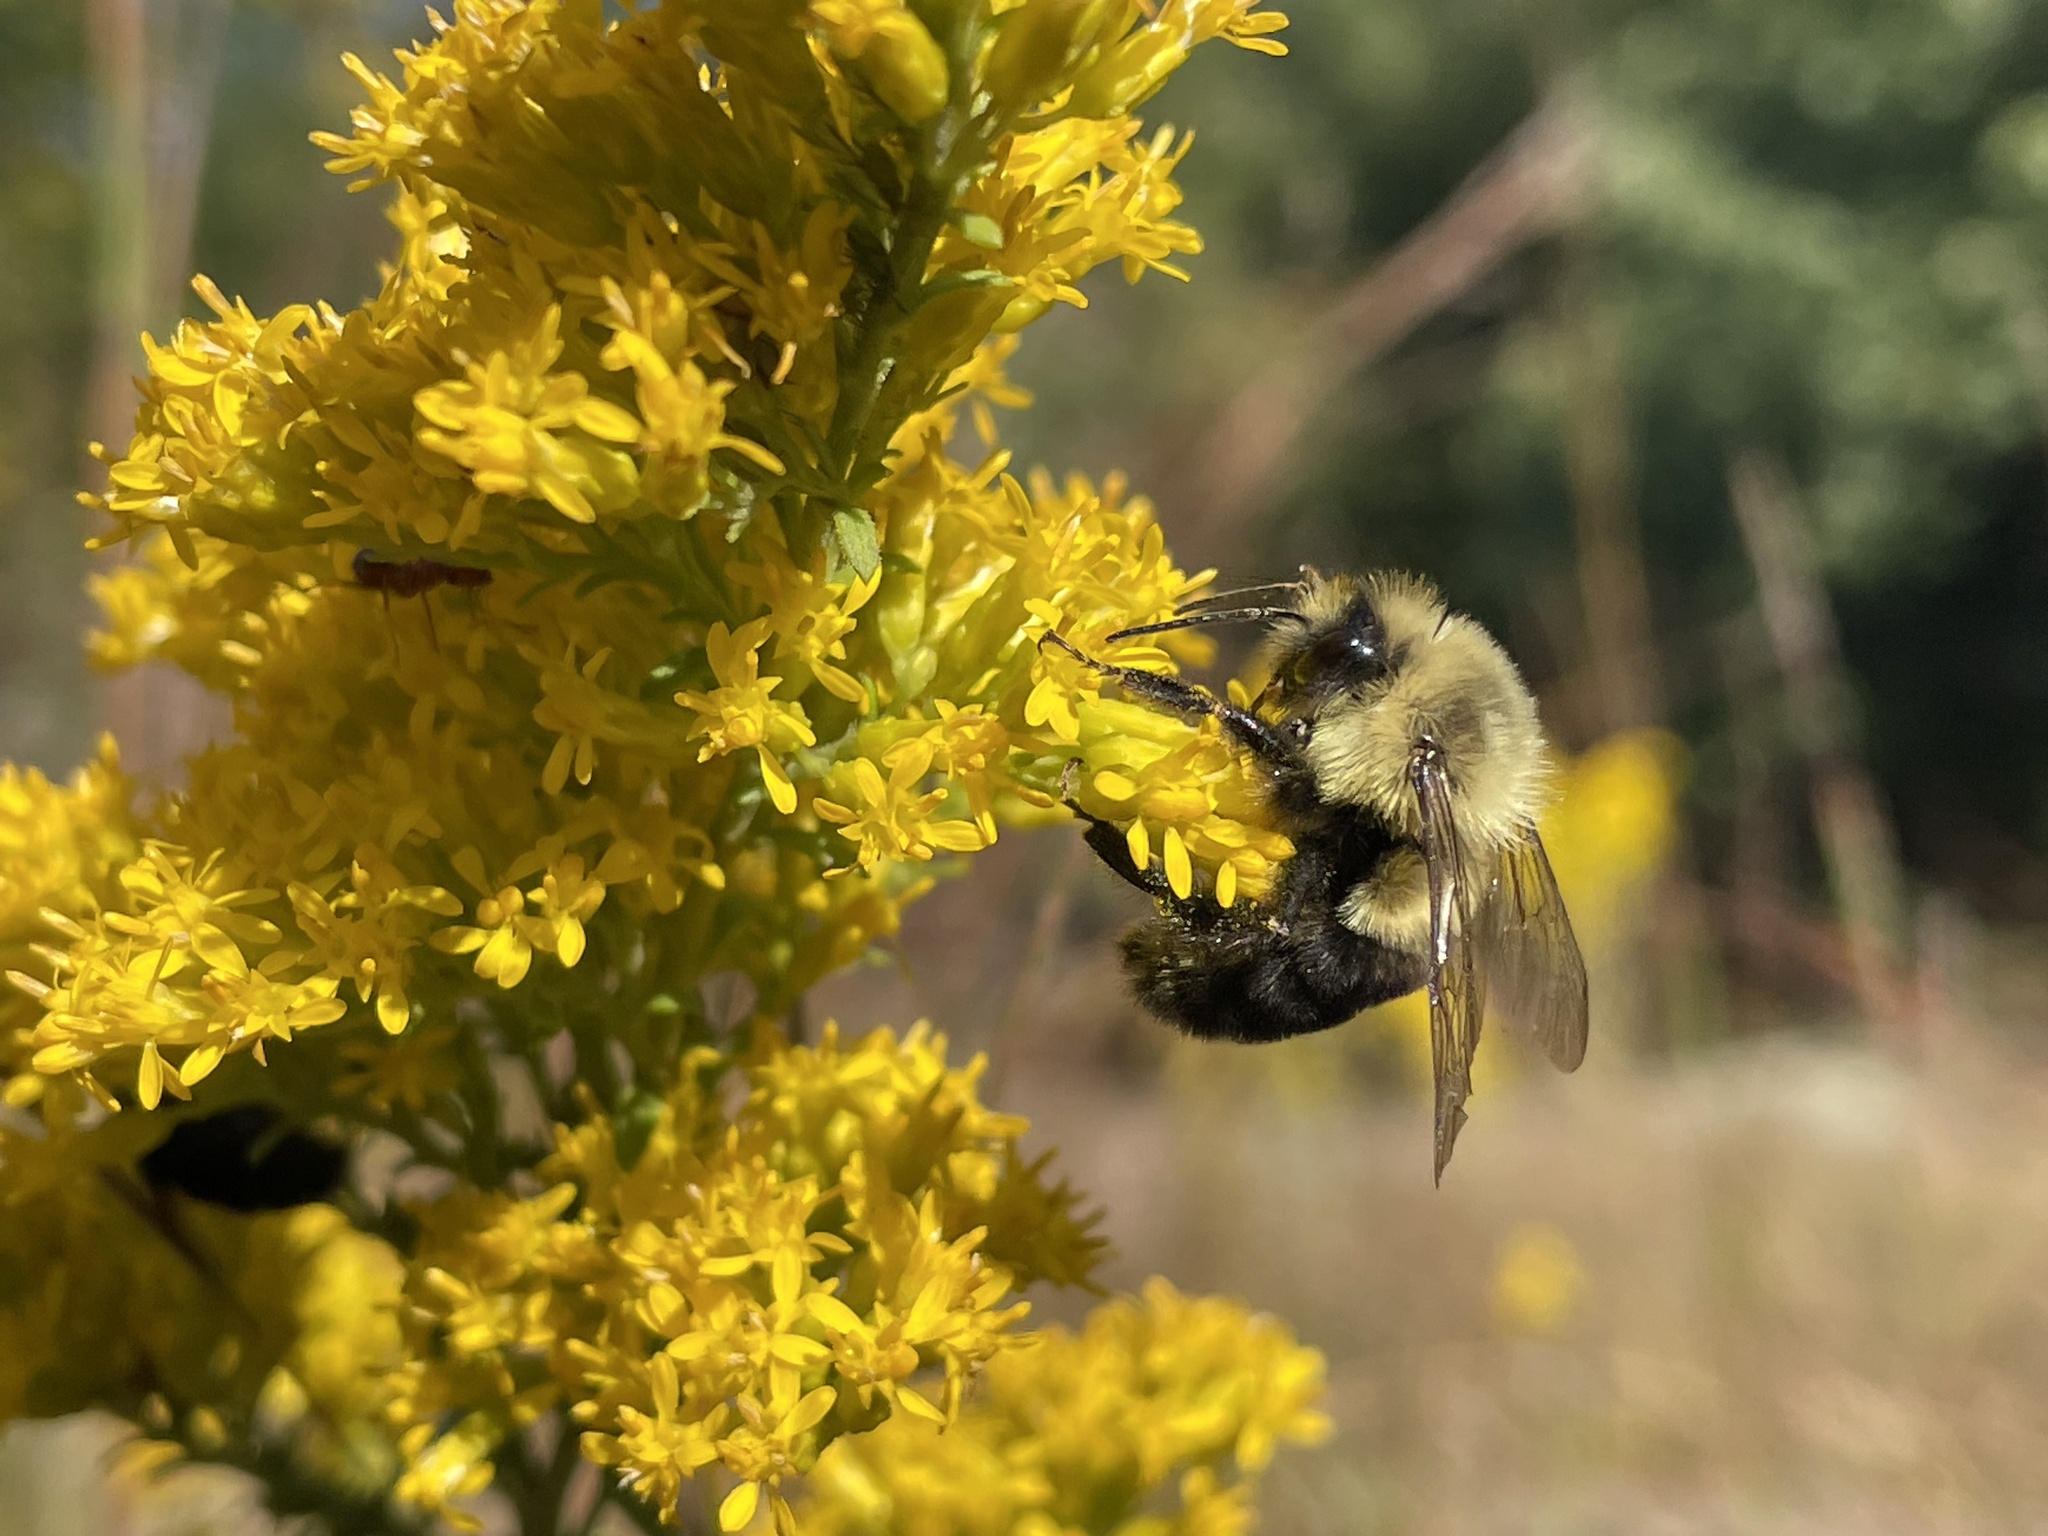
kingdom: Animalia
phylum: Arthropoda
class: Insecta
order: Hymenoptera
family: Apidae
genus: Bombus
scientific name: Bombus impatiens
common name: Common eastern bumble bee
